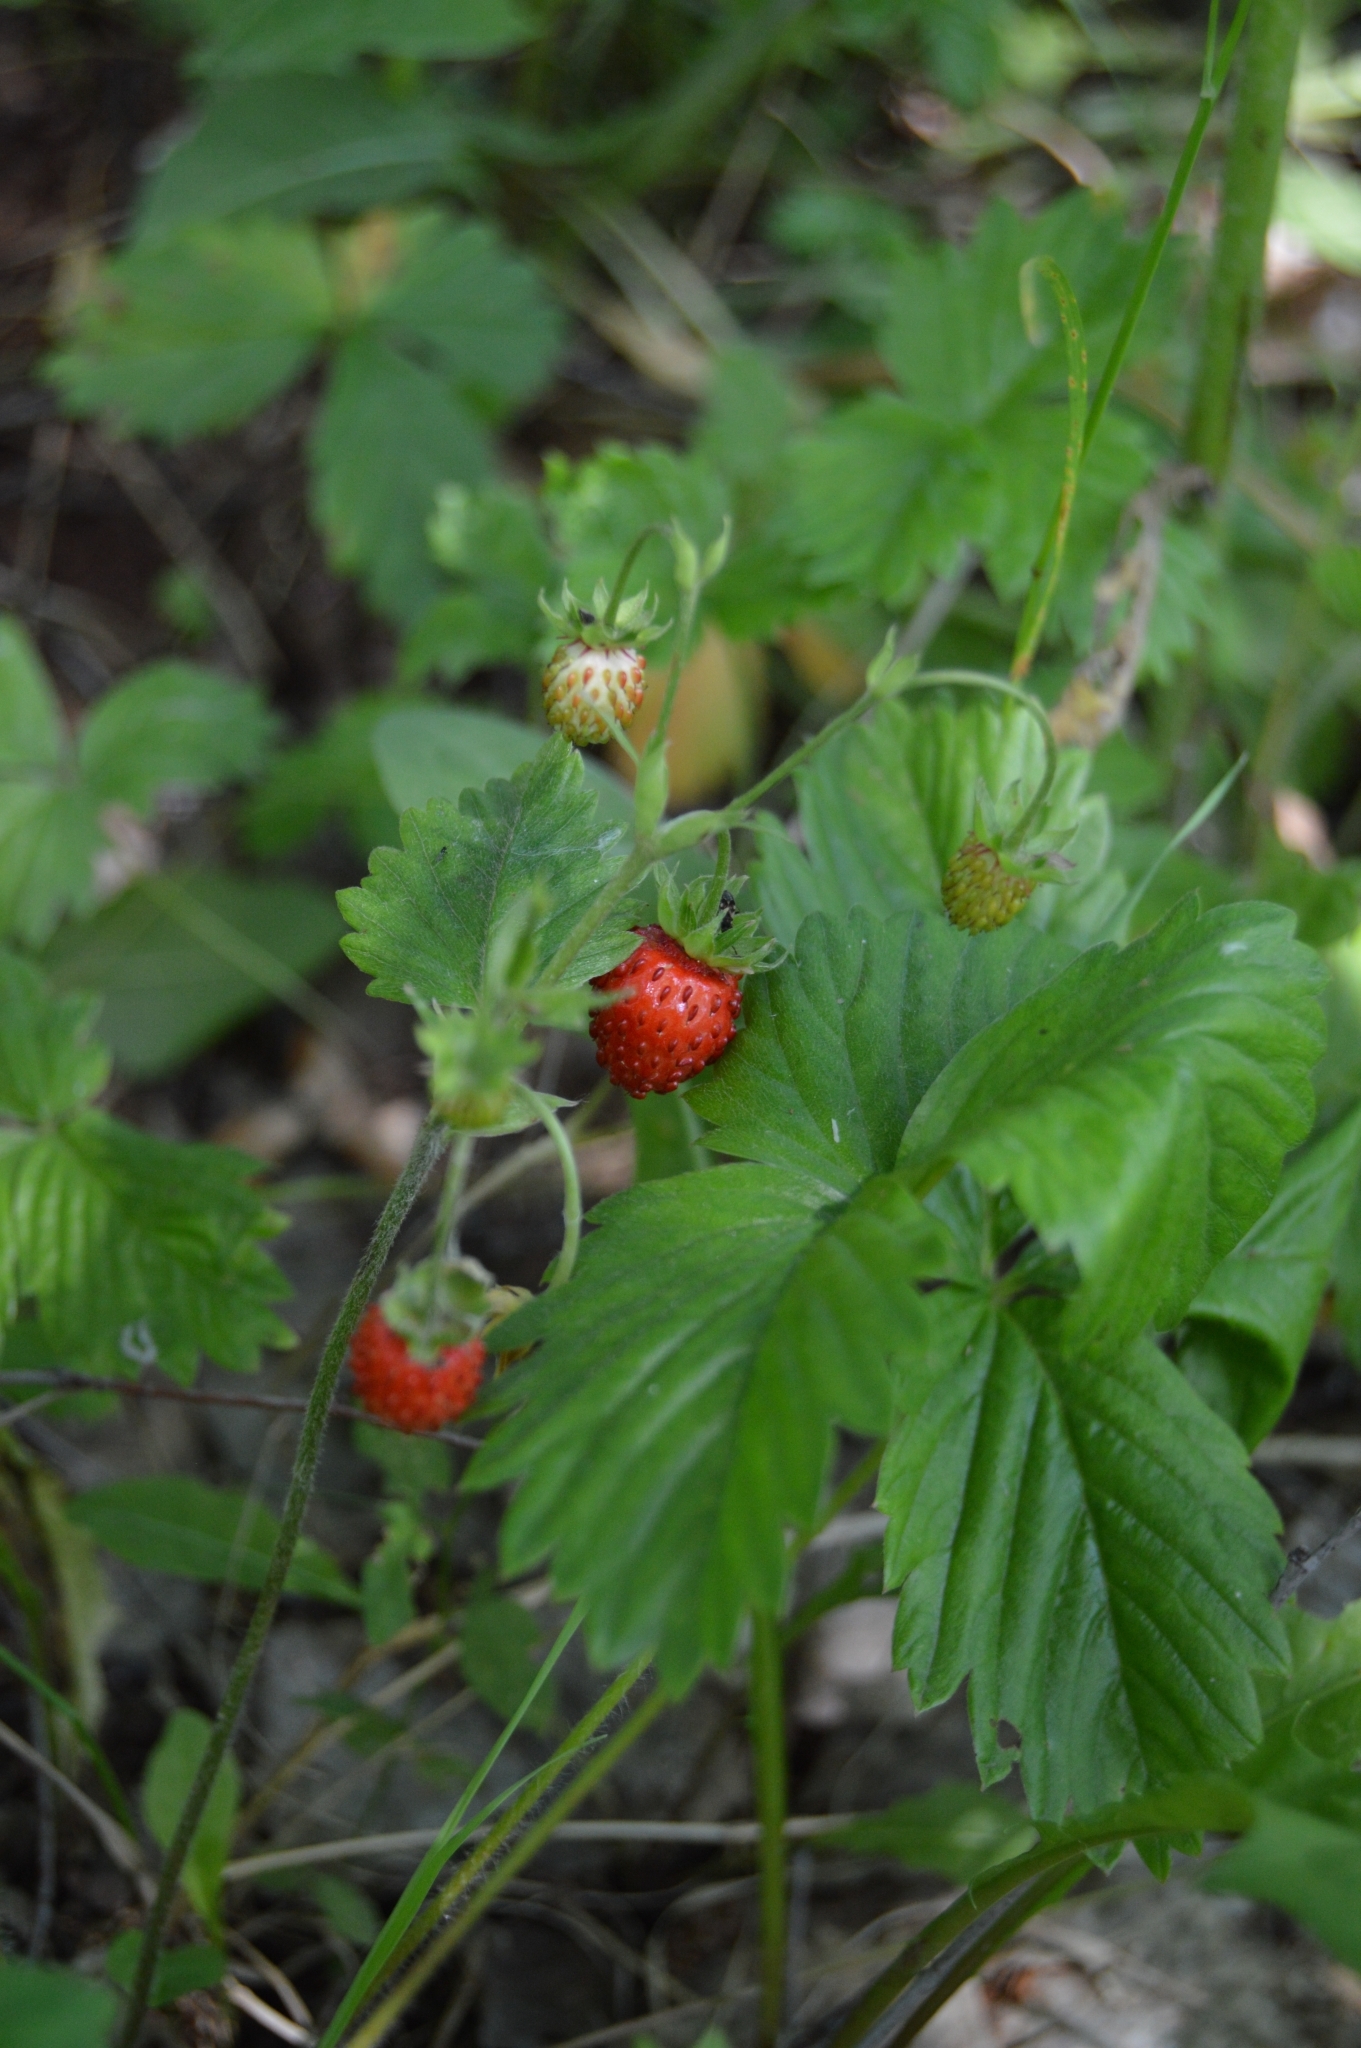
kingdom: Plantae
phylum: Tracheophyta
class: Magnoliopsida
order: Rosales
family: Rosaceae
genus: Fragaria
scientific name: Fragaria vesca
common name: Wild strawberry
